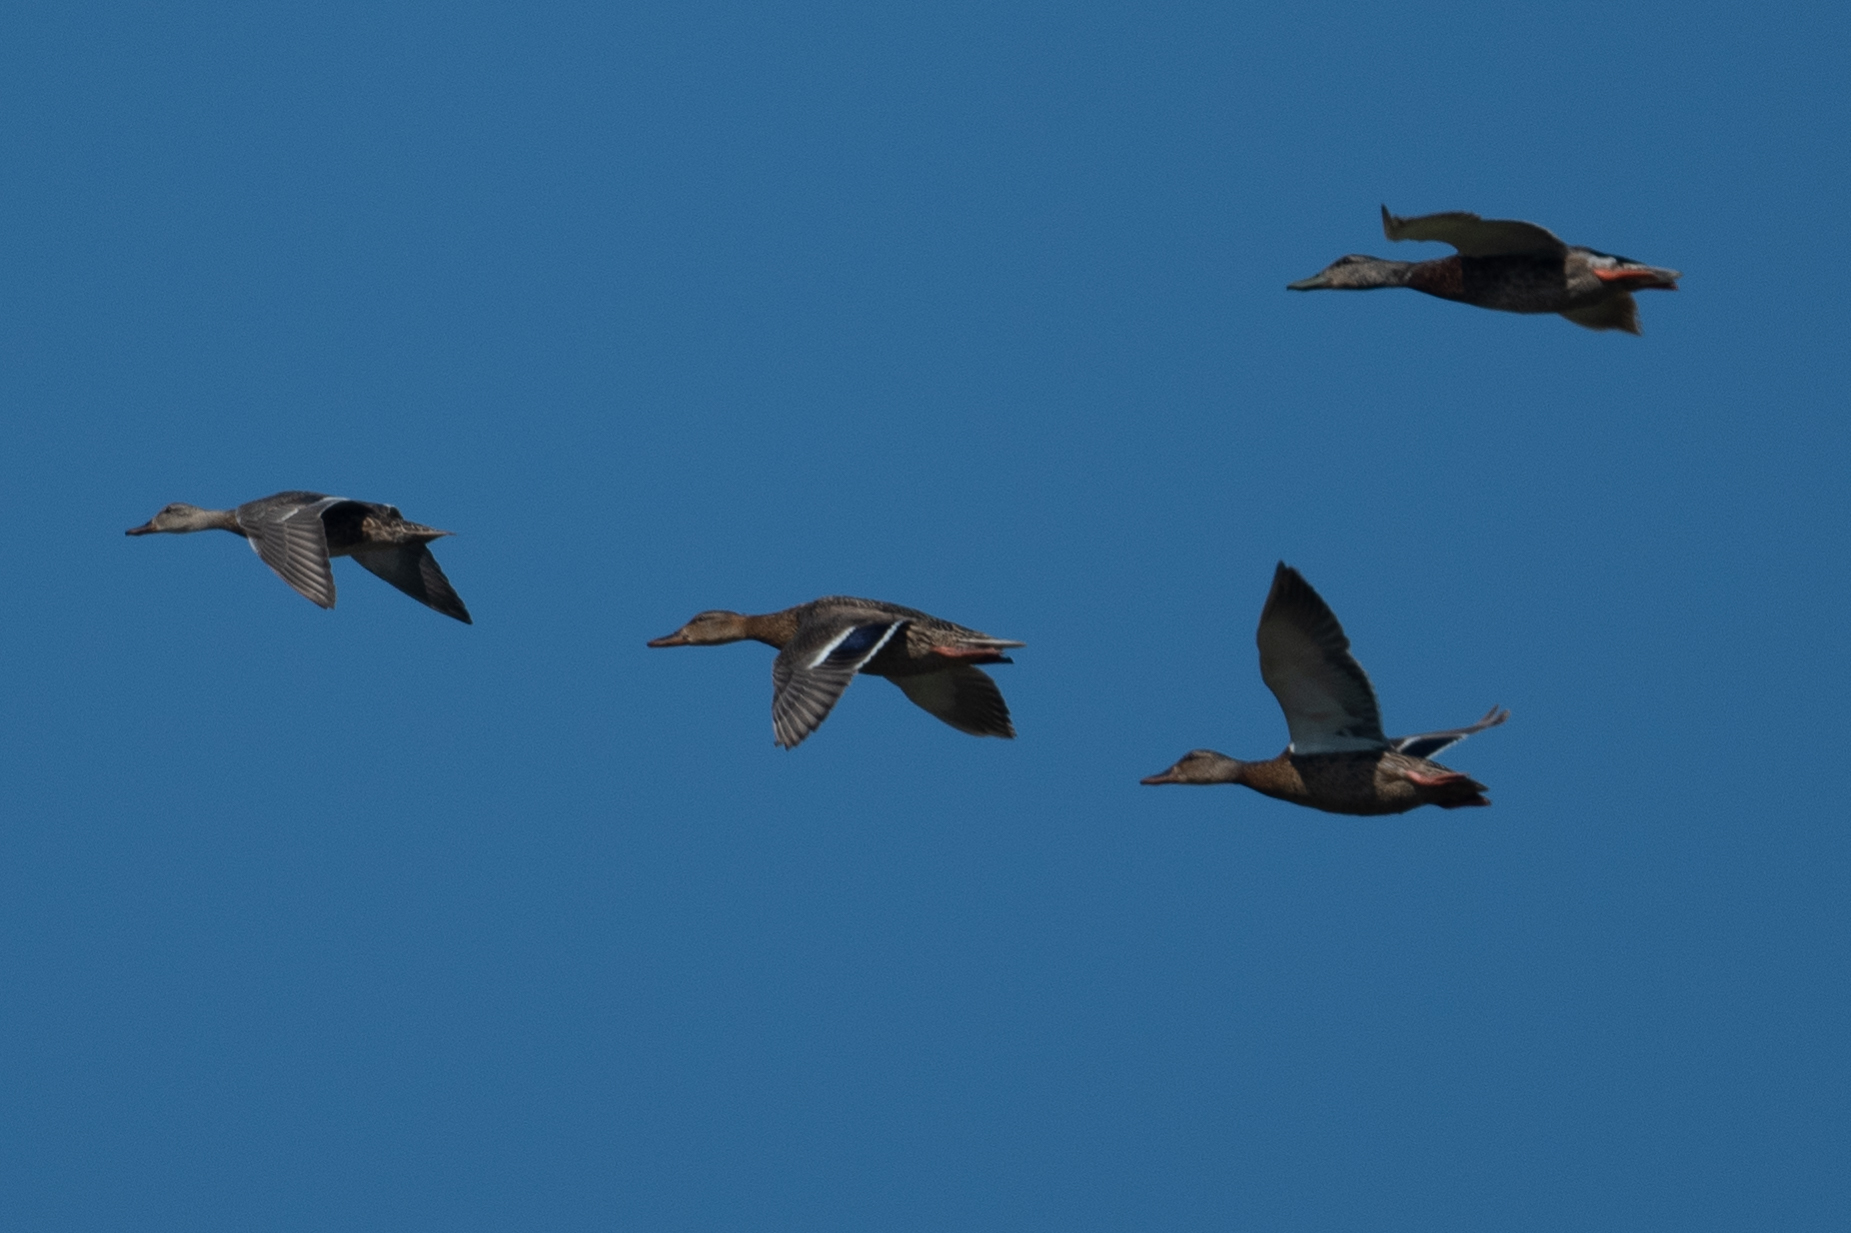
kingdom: Animalia
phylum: Chordata
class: Aves
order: Anseriformes
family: Anatidae
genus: Anas
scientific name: Anas platyrhynchos
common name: Mallard
